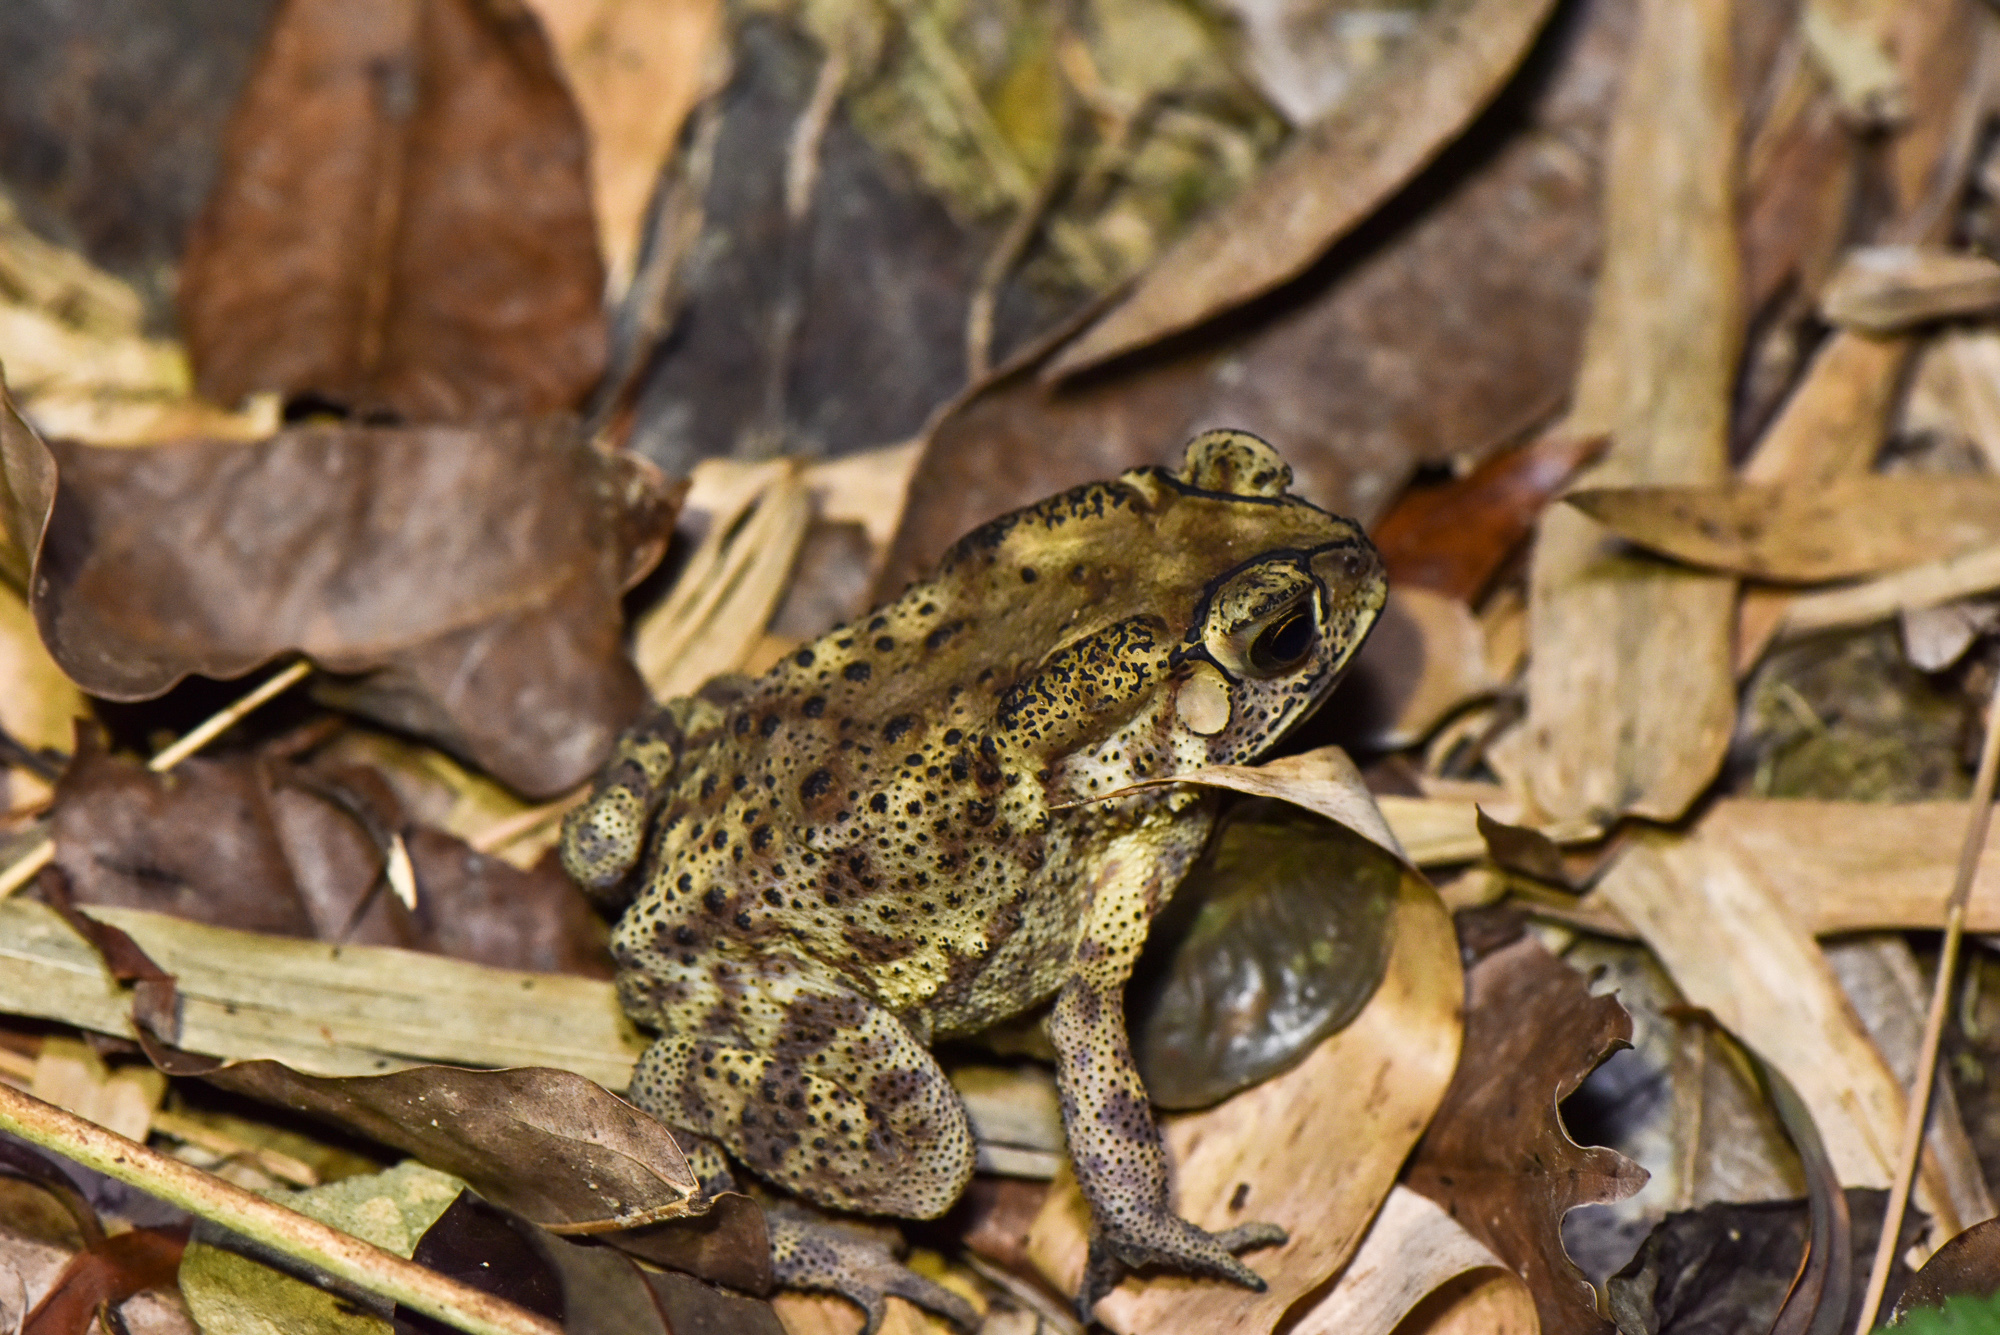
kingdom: Animalia
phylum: Chordata
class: Amphibia
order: Anura
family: Bufonidae
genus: Duttaphrynus
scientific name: Duttaphrynus melanostictus
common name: Common sunda toad
